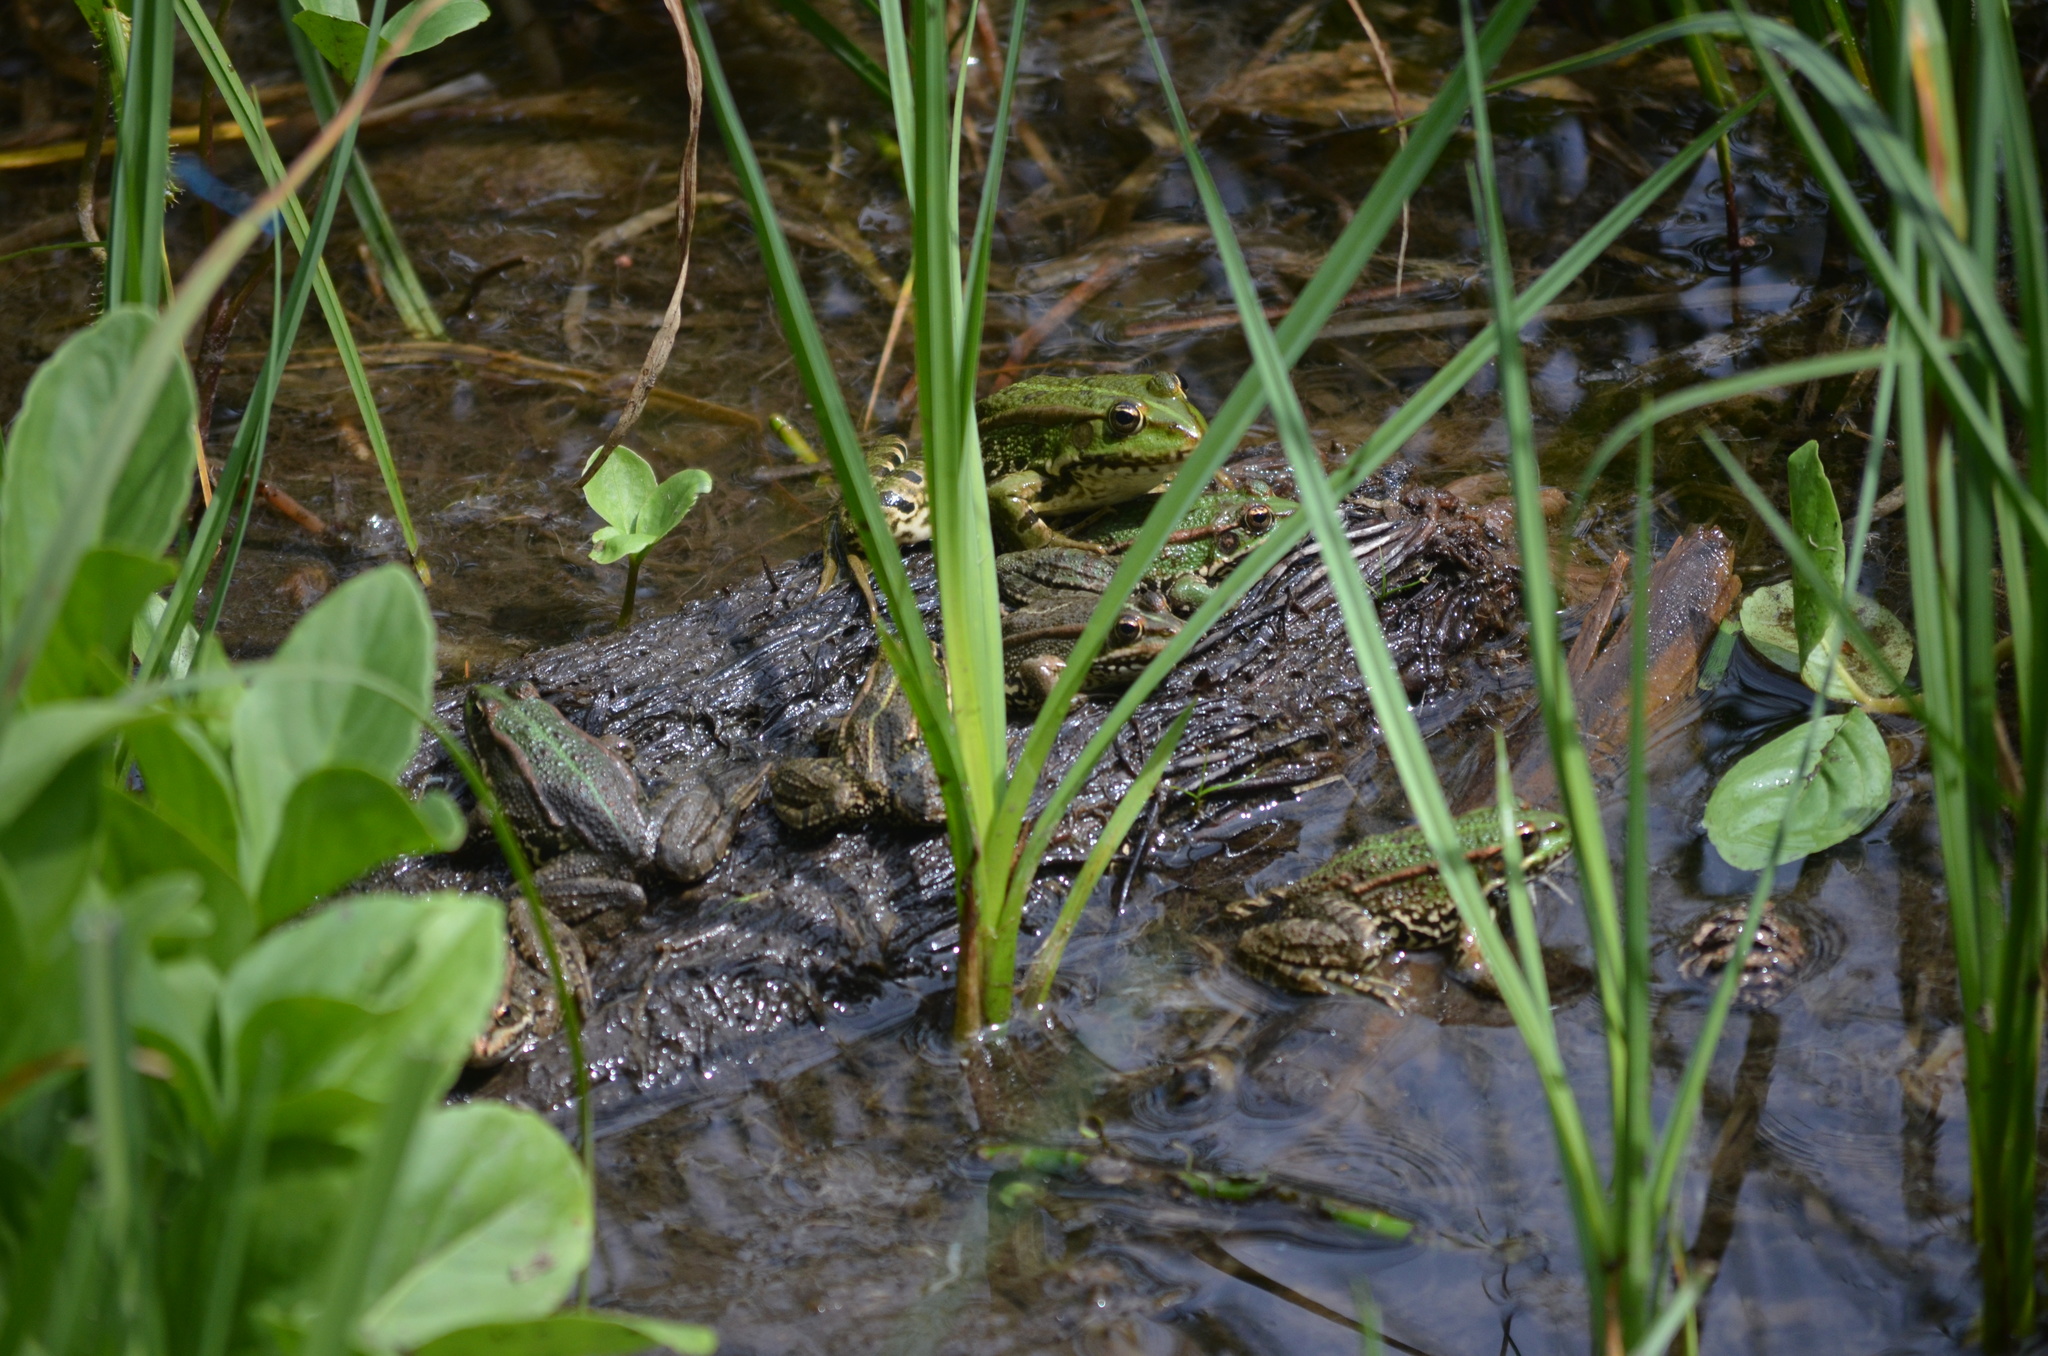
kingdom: Animalia
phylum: Chordata
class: Amphibia
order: Anura
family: Ranidae
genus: Pelophylax
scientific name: Pelophylax perezi
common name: Perez's frog
